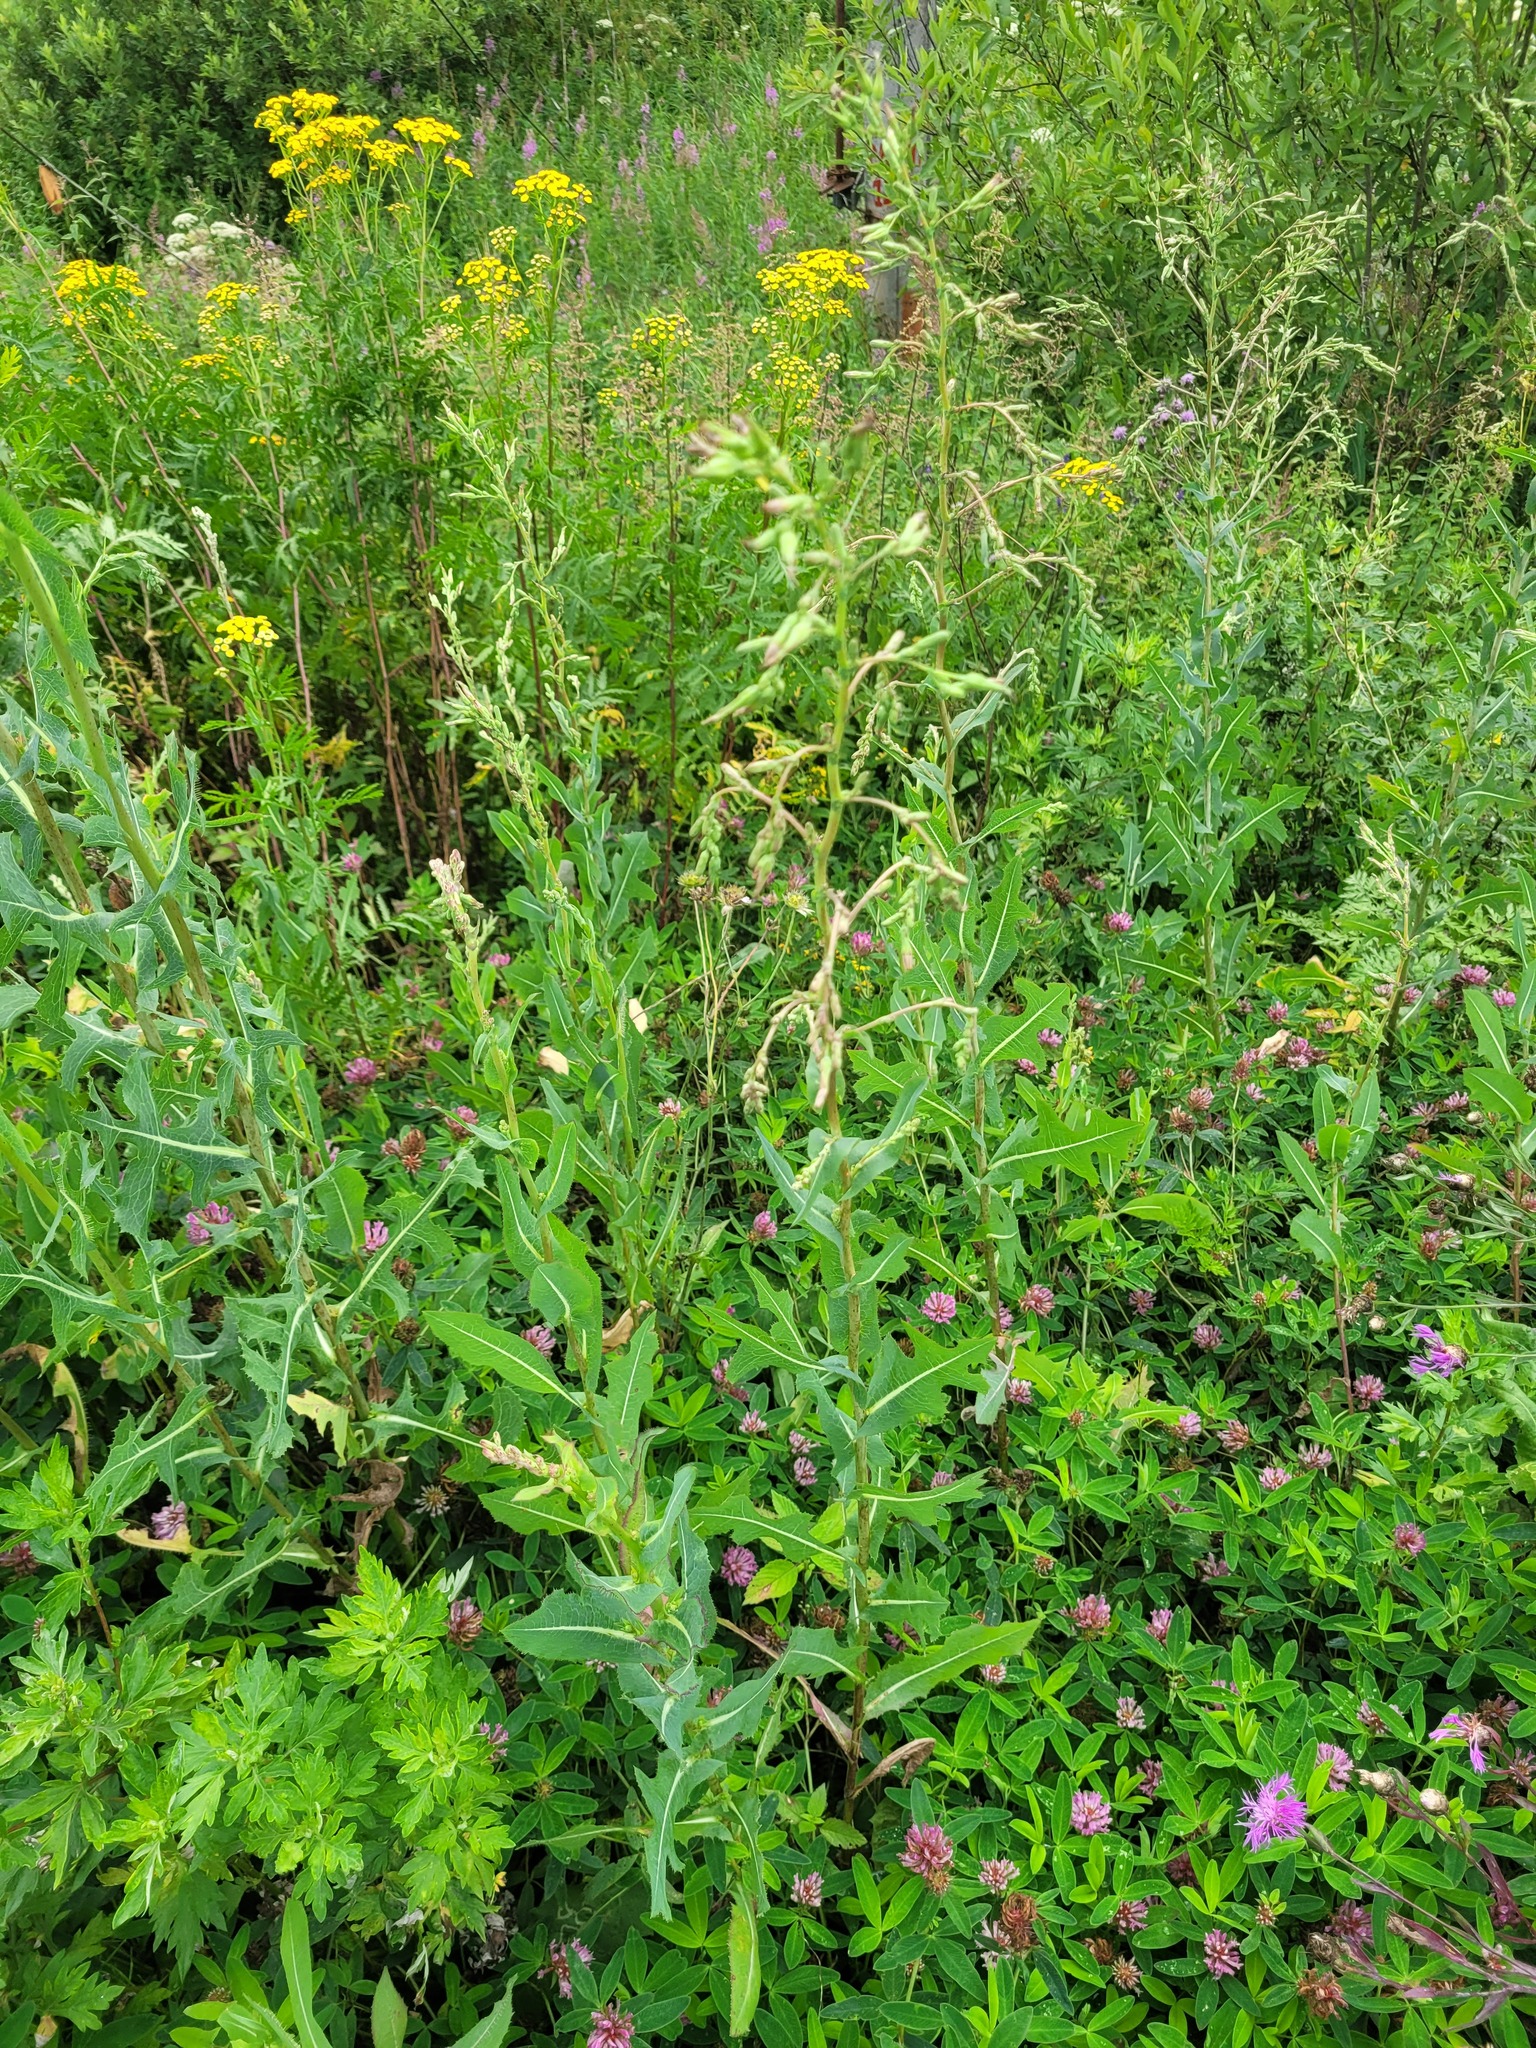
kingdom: Plantae
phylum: Tracheophyta
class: Magnoliopsida
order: Asterales
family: Asteraceae
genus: Lactuca
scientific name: Lactuca serriola
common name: Prickly lettuce
